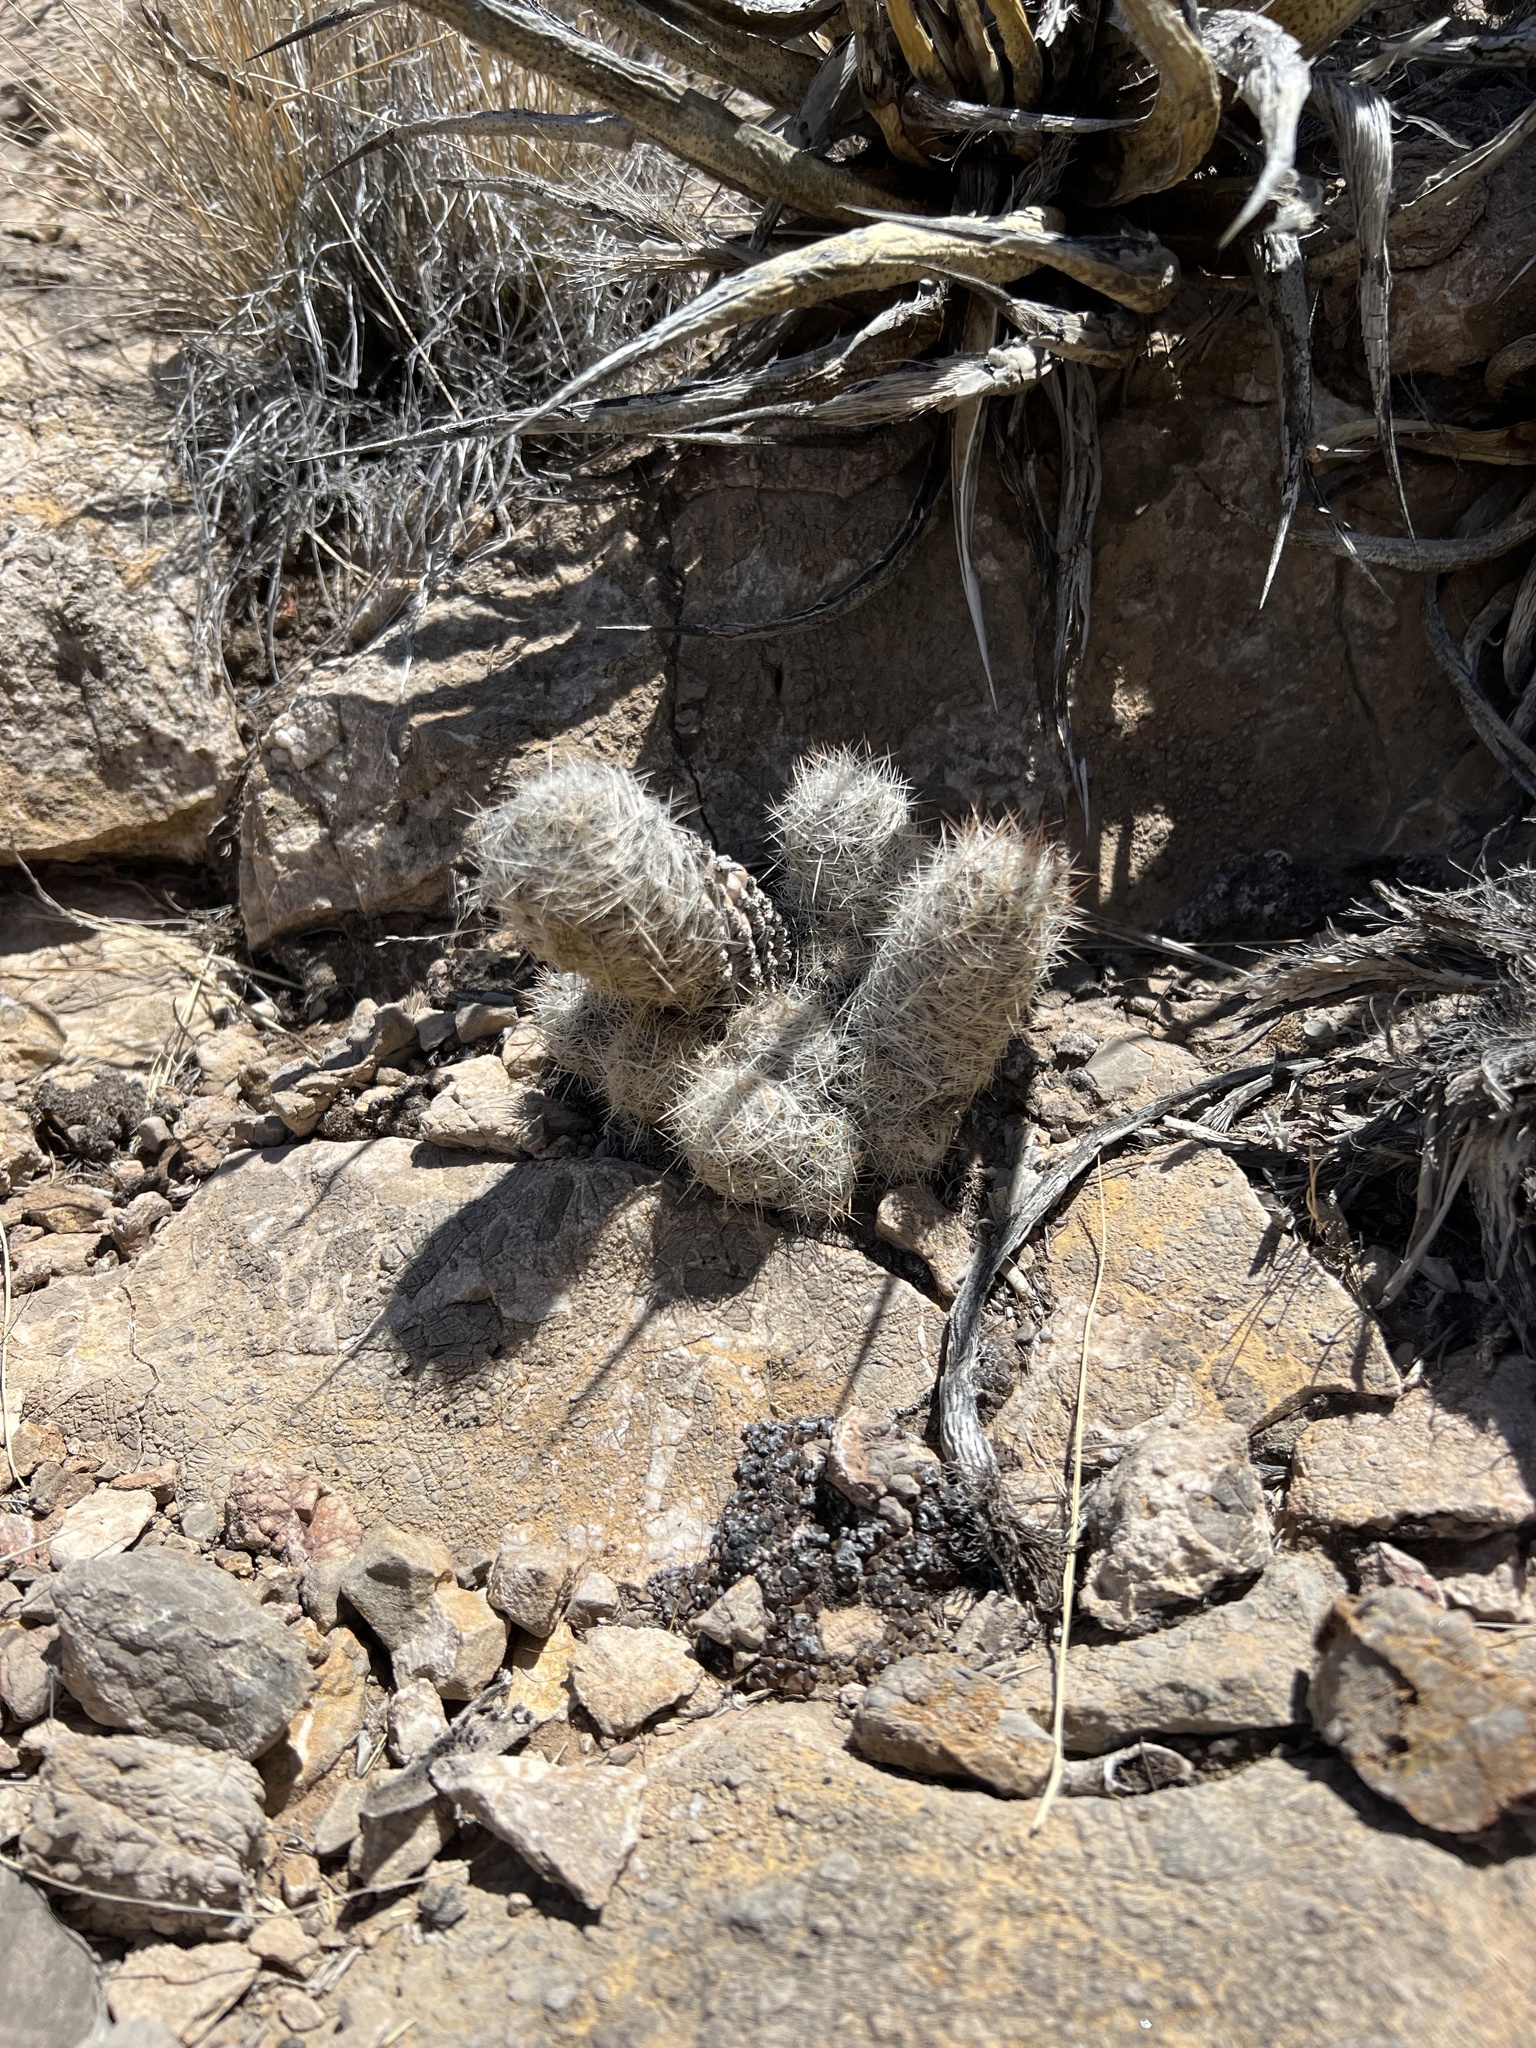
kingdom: Plantae
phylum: Tracheophyta
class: Magnoliopsida
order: Caryophyllales
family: Cactaceae
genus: Pelecyphora
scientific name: Pelecyphora tuberculosa
